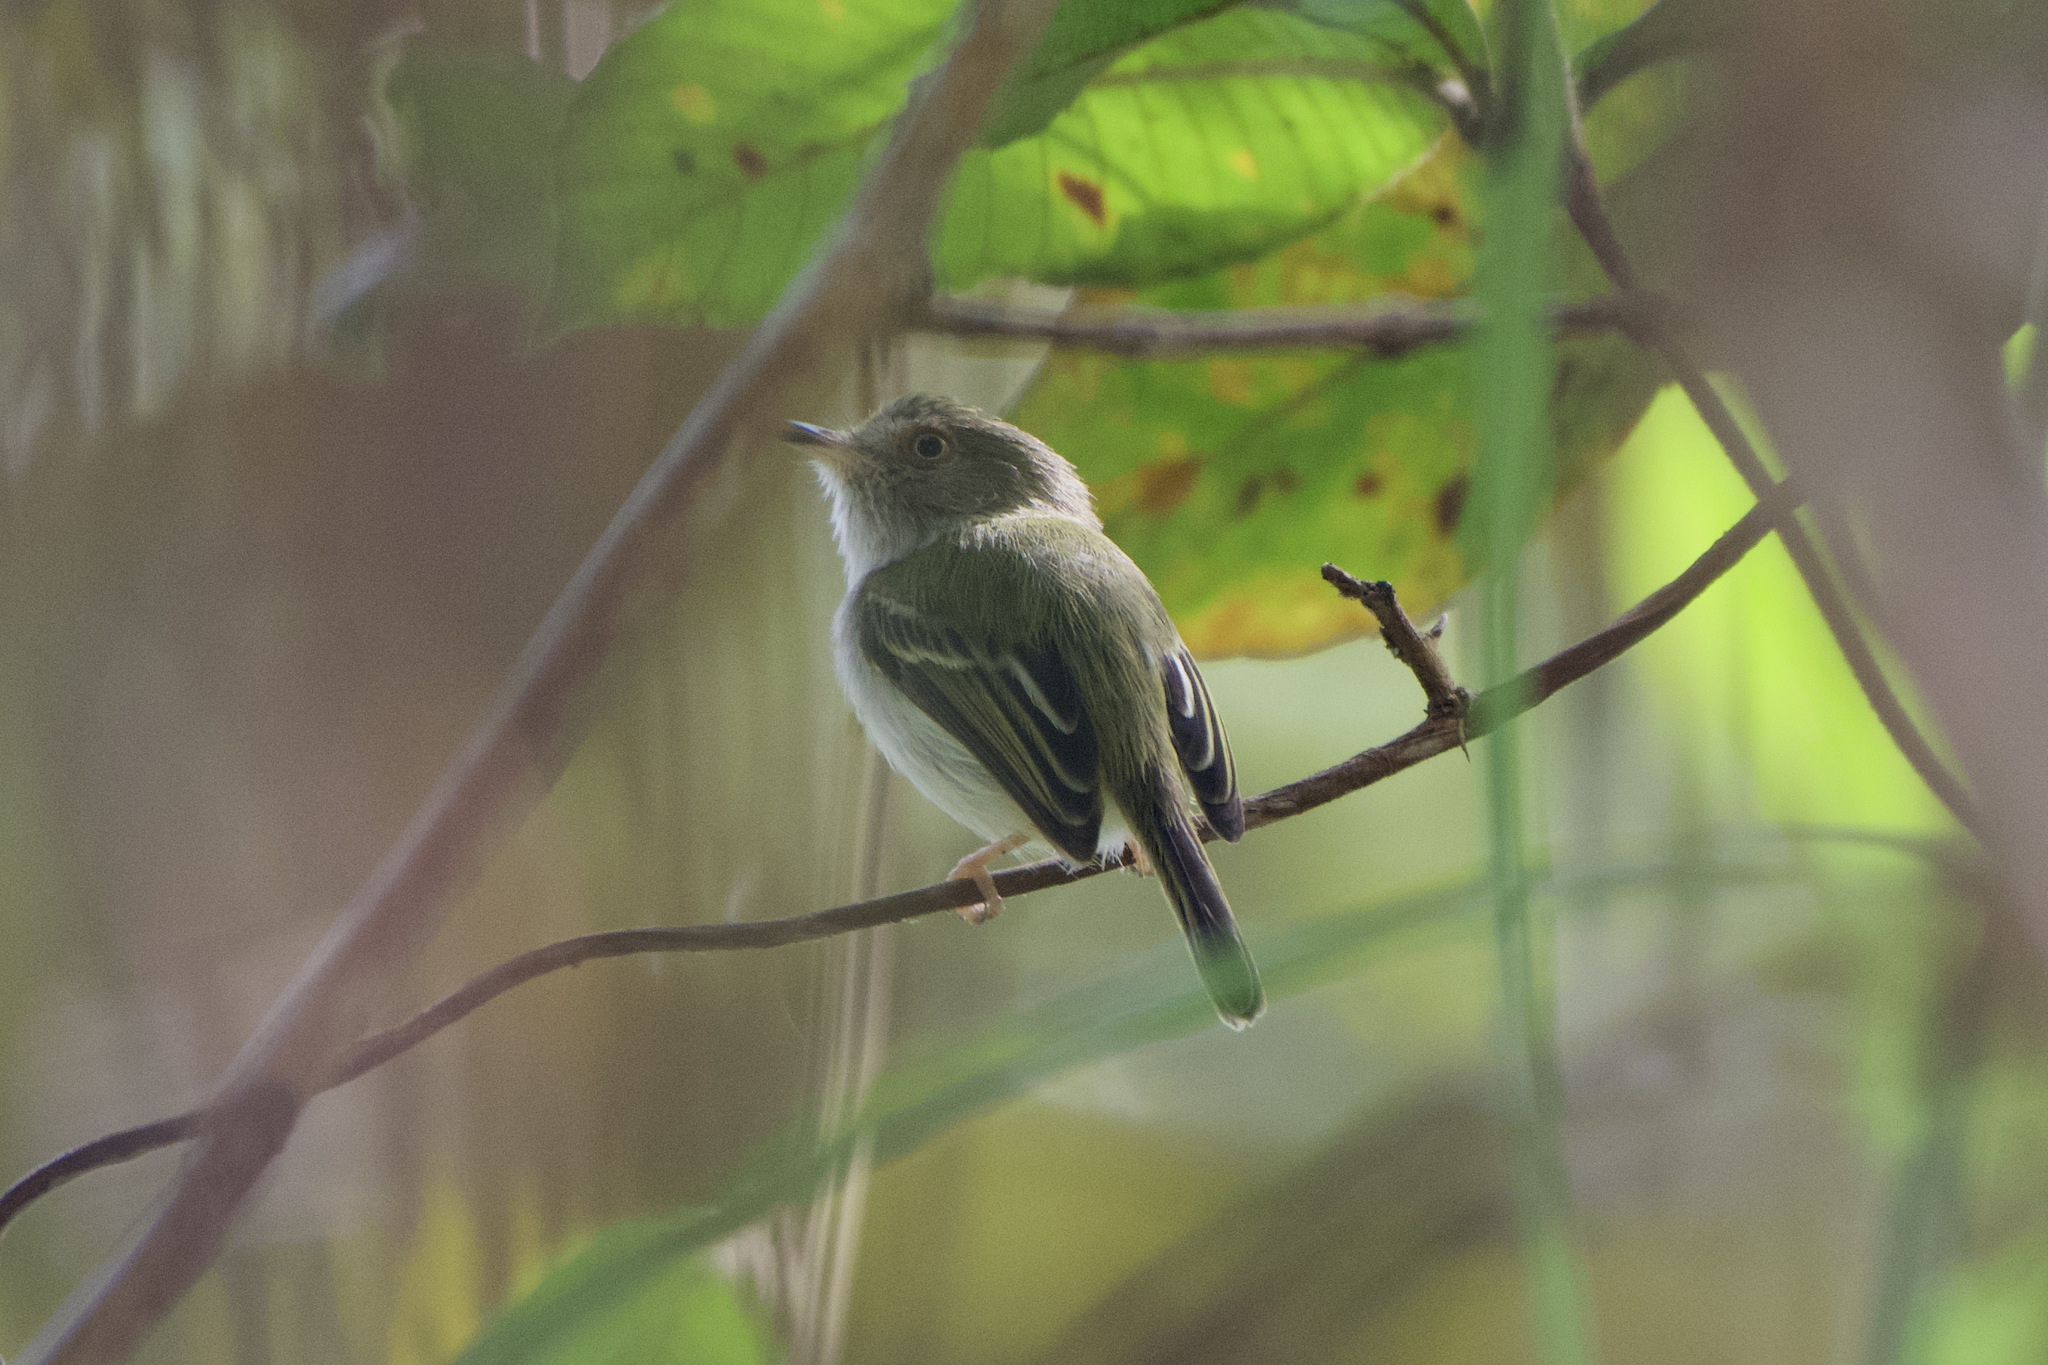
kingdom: Animalia
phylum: Chordata
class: Aves
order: Passeriformes
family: Tyrannidae
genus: Atalotriccus
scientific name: Atalotriccus pilaris
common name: Pale-eyed pygmy-tyrant
